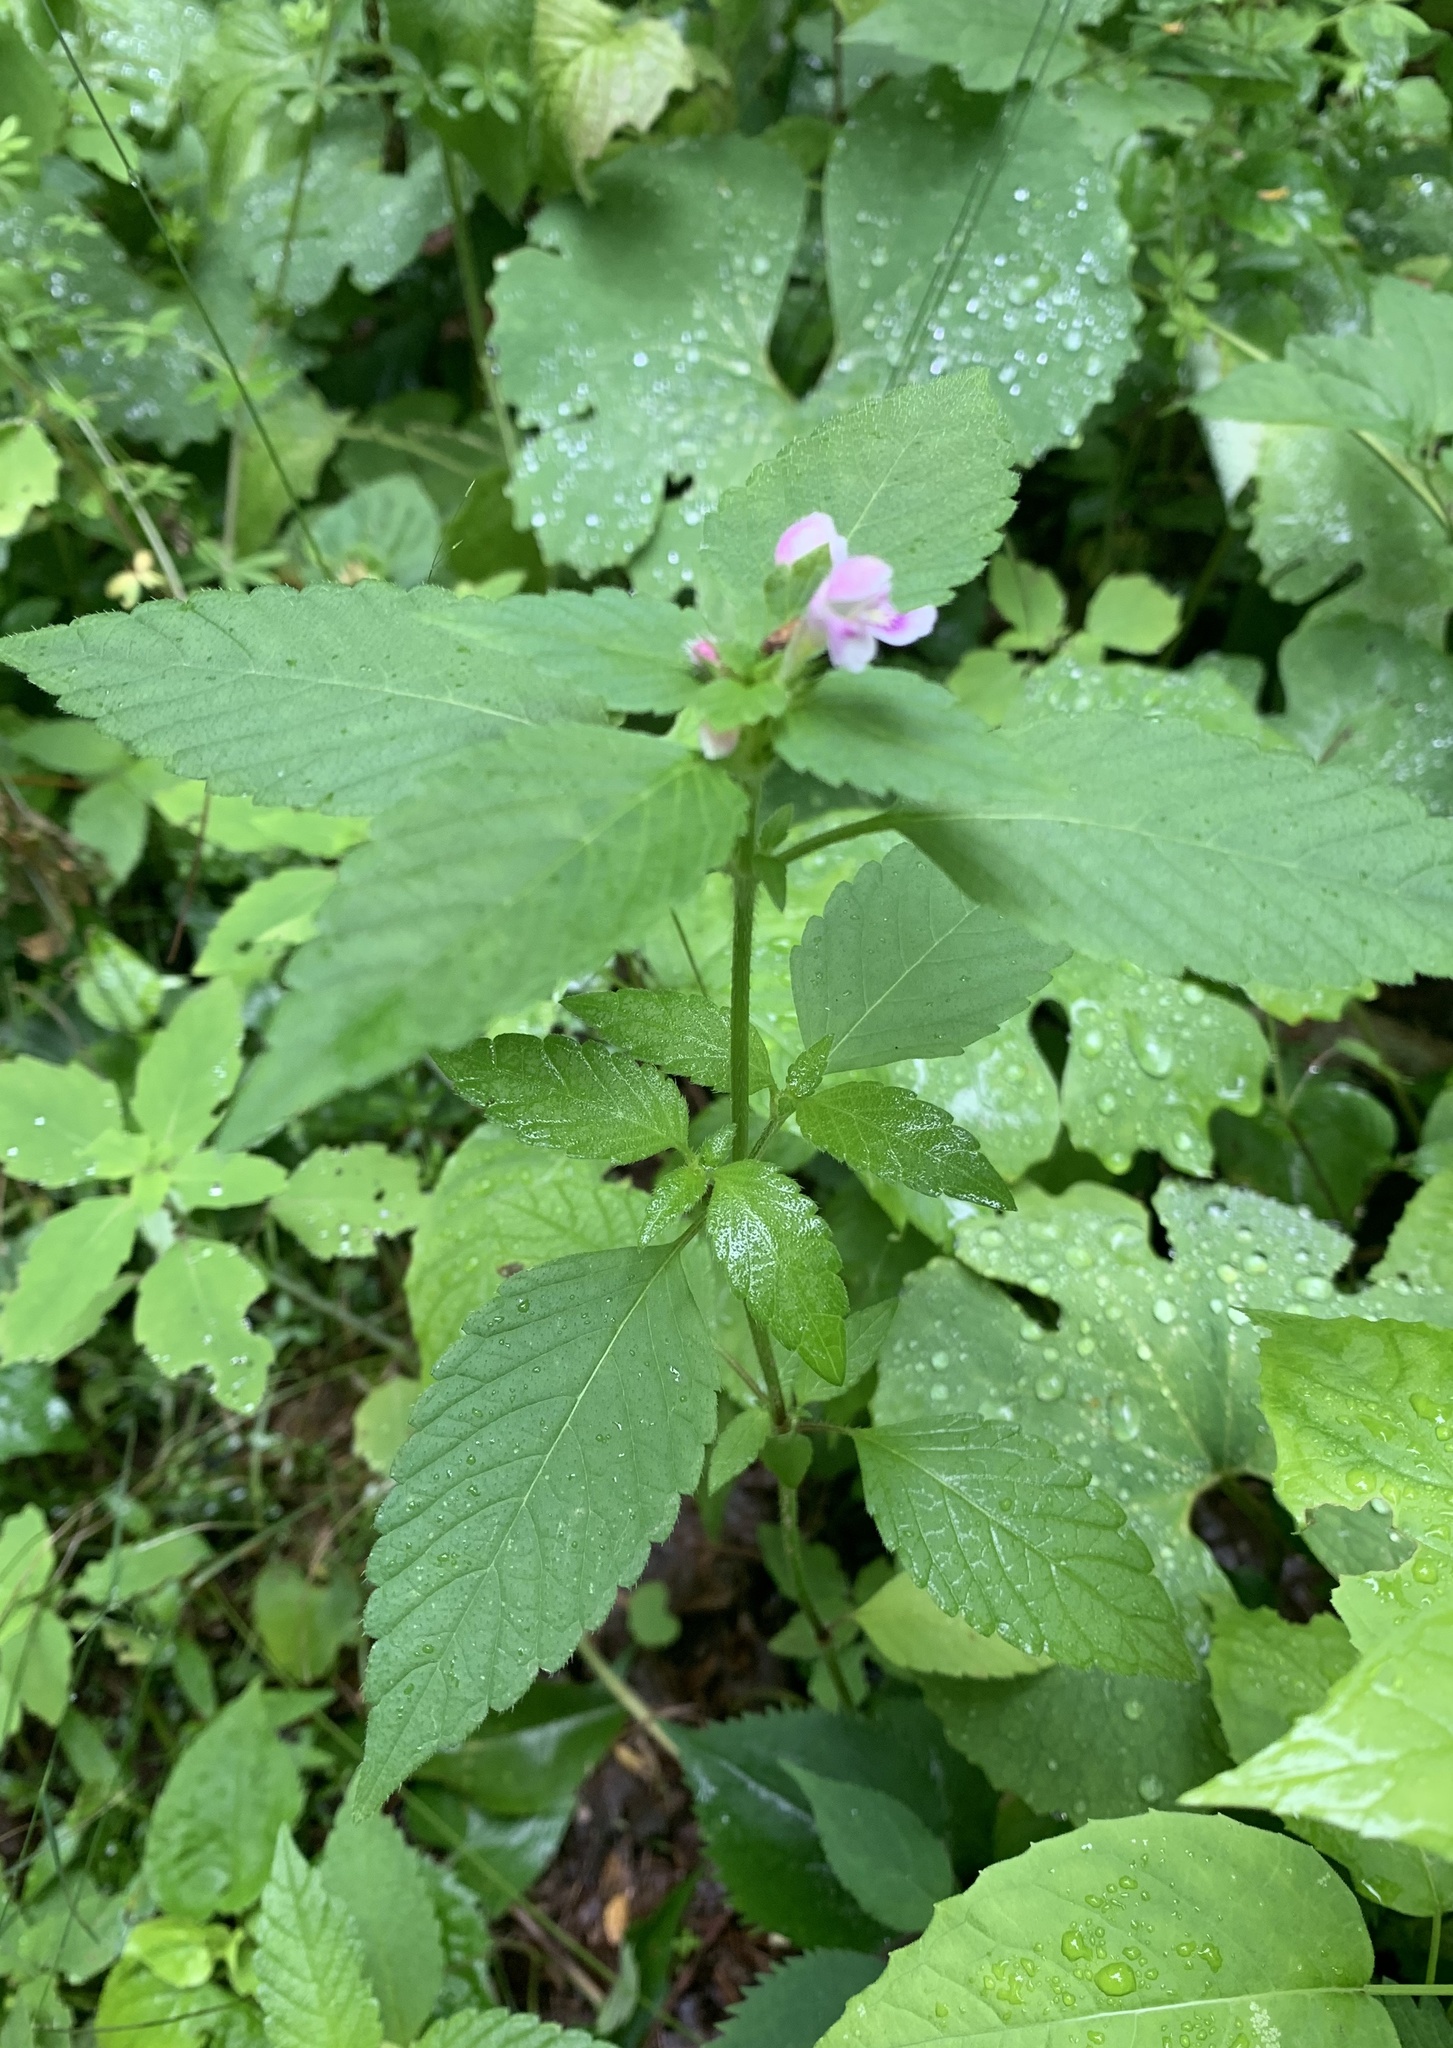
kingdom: Plantae
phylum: Tracheophyta
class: Magnoliopsida
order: Lamiales
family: Lamiaceae
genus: Galeopsis
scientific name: Galeopsis tetrahit
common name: Common hemp-nettle
